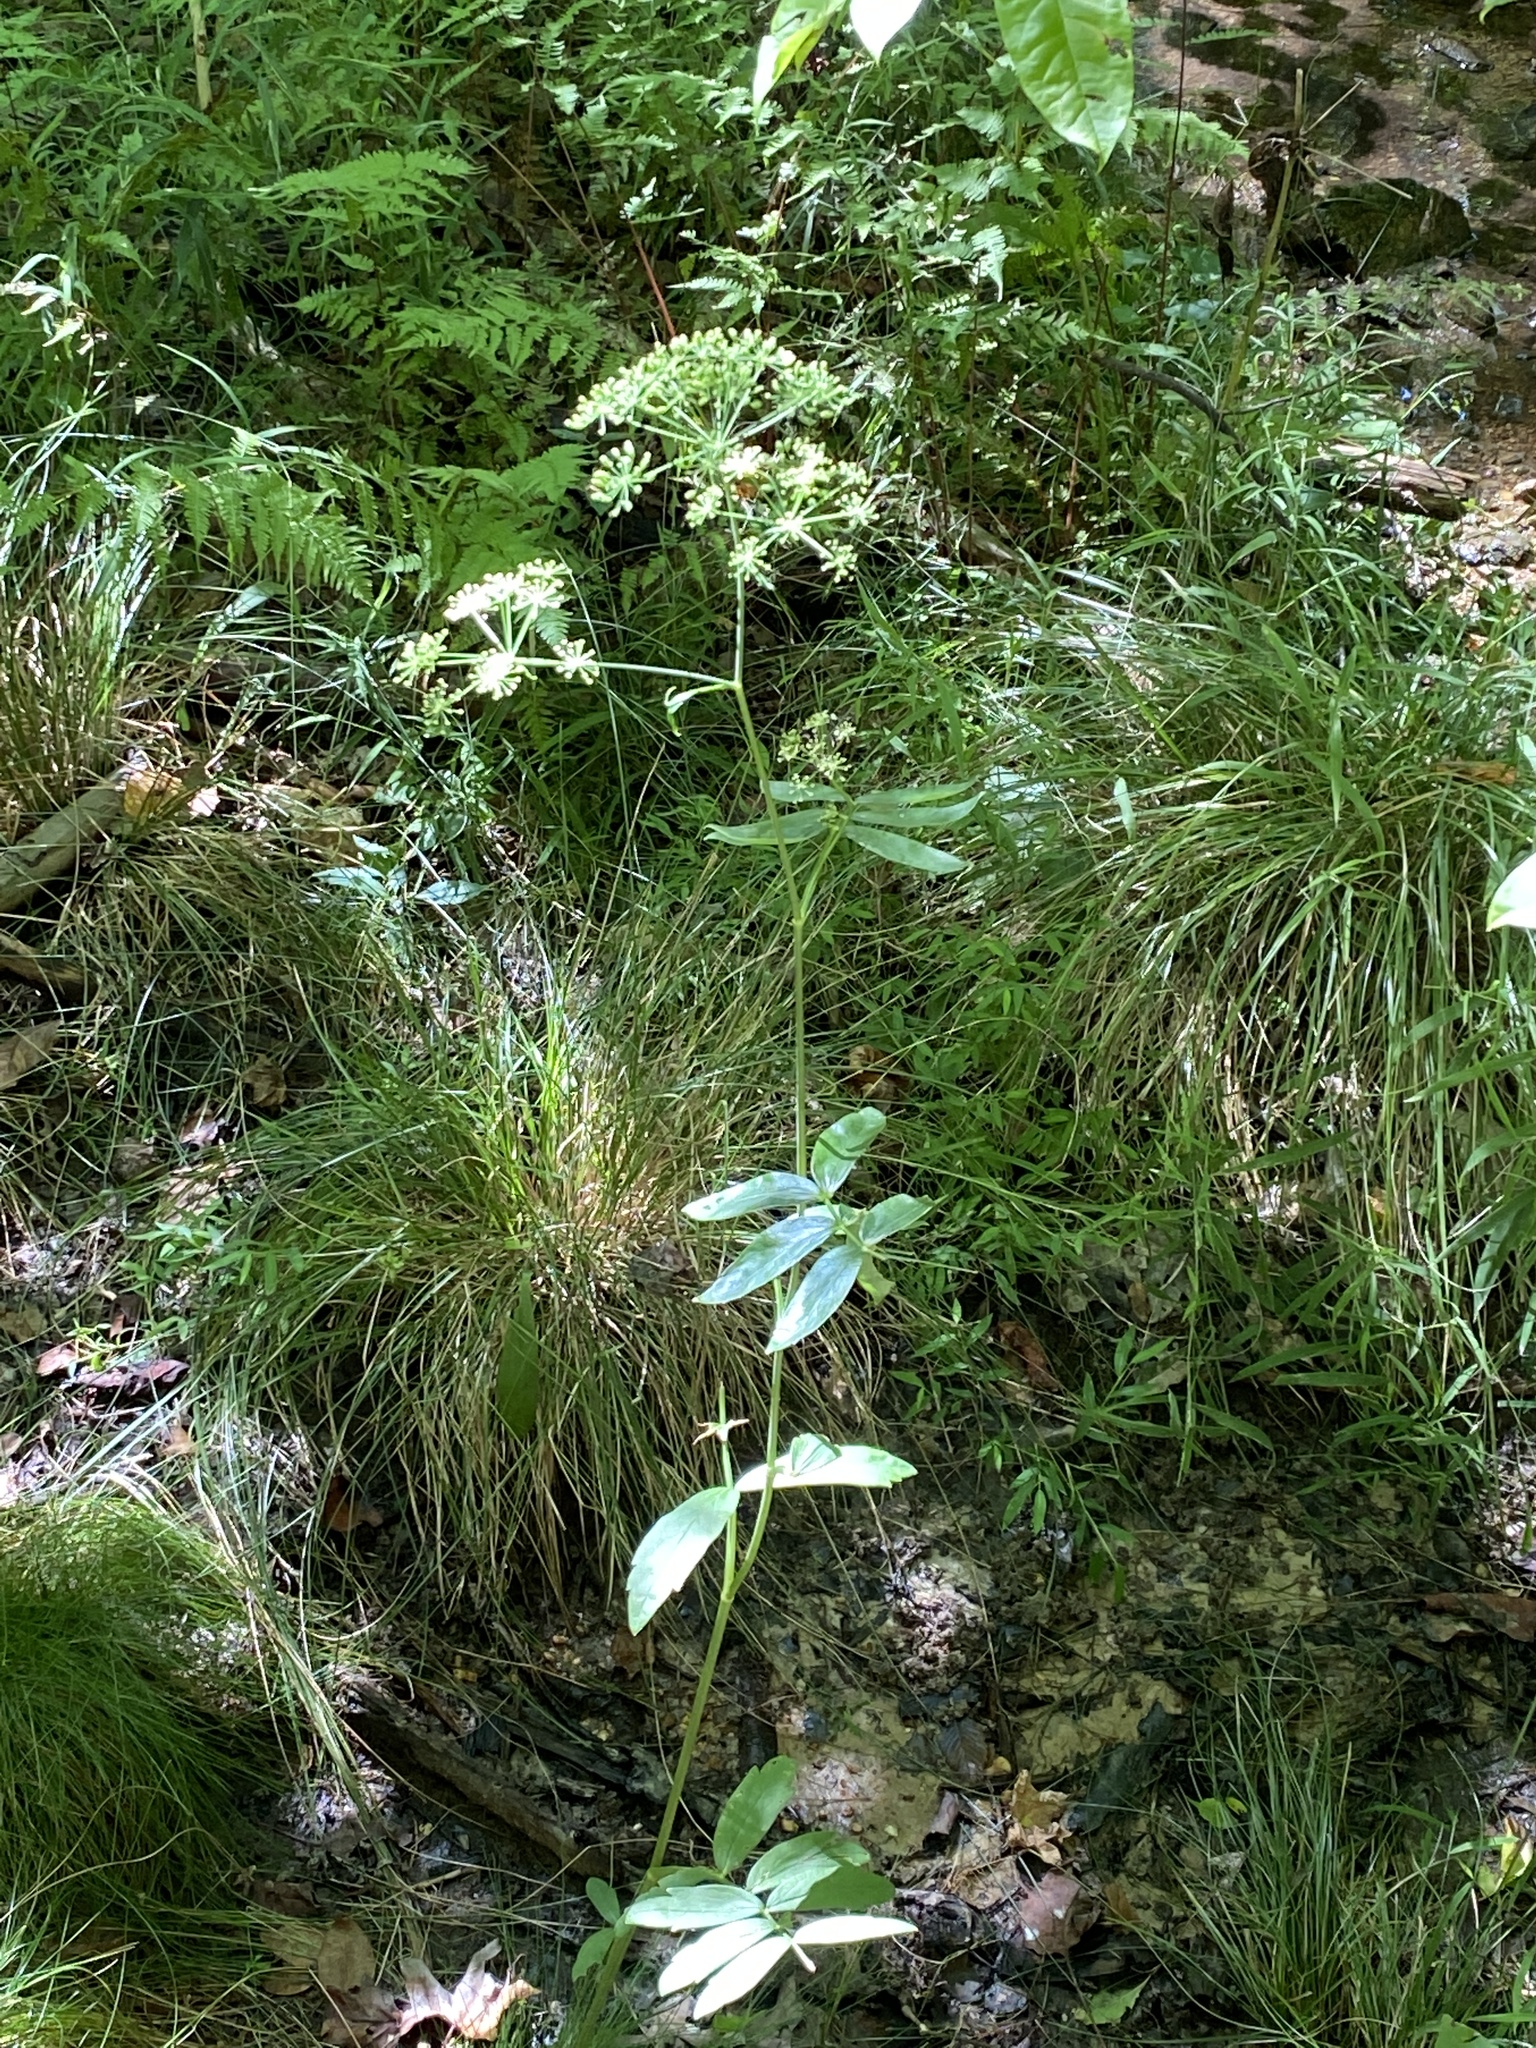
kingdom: Plantae
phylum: Tracheophyta
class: Magnoliopsida
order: Apiales
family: Apiaceae
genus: Oxypolis
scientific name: Oxypolis rigidior
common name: Cowbane
